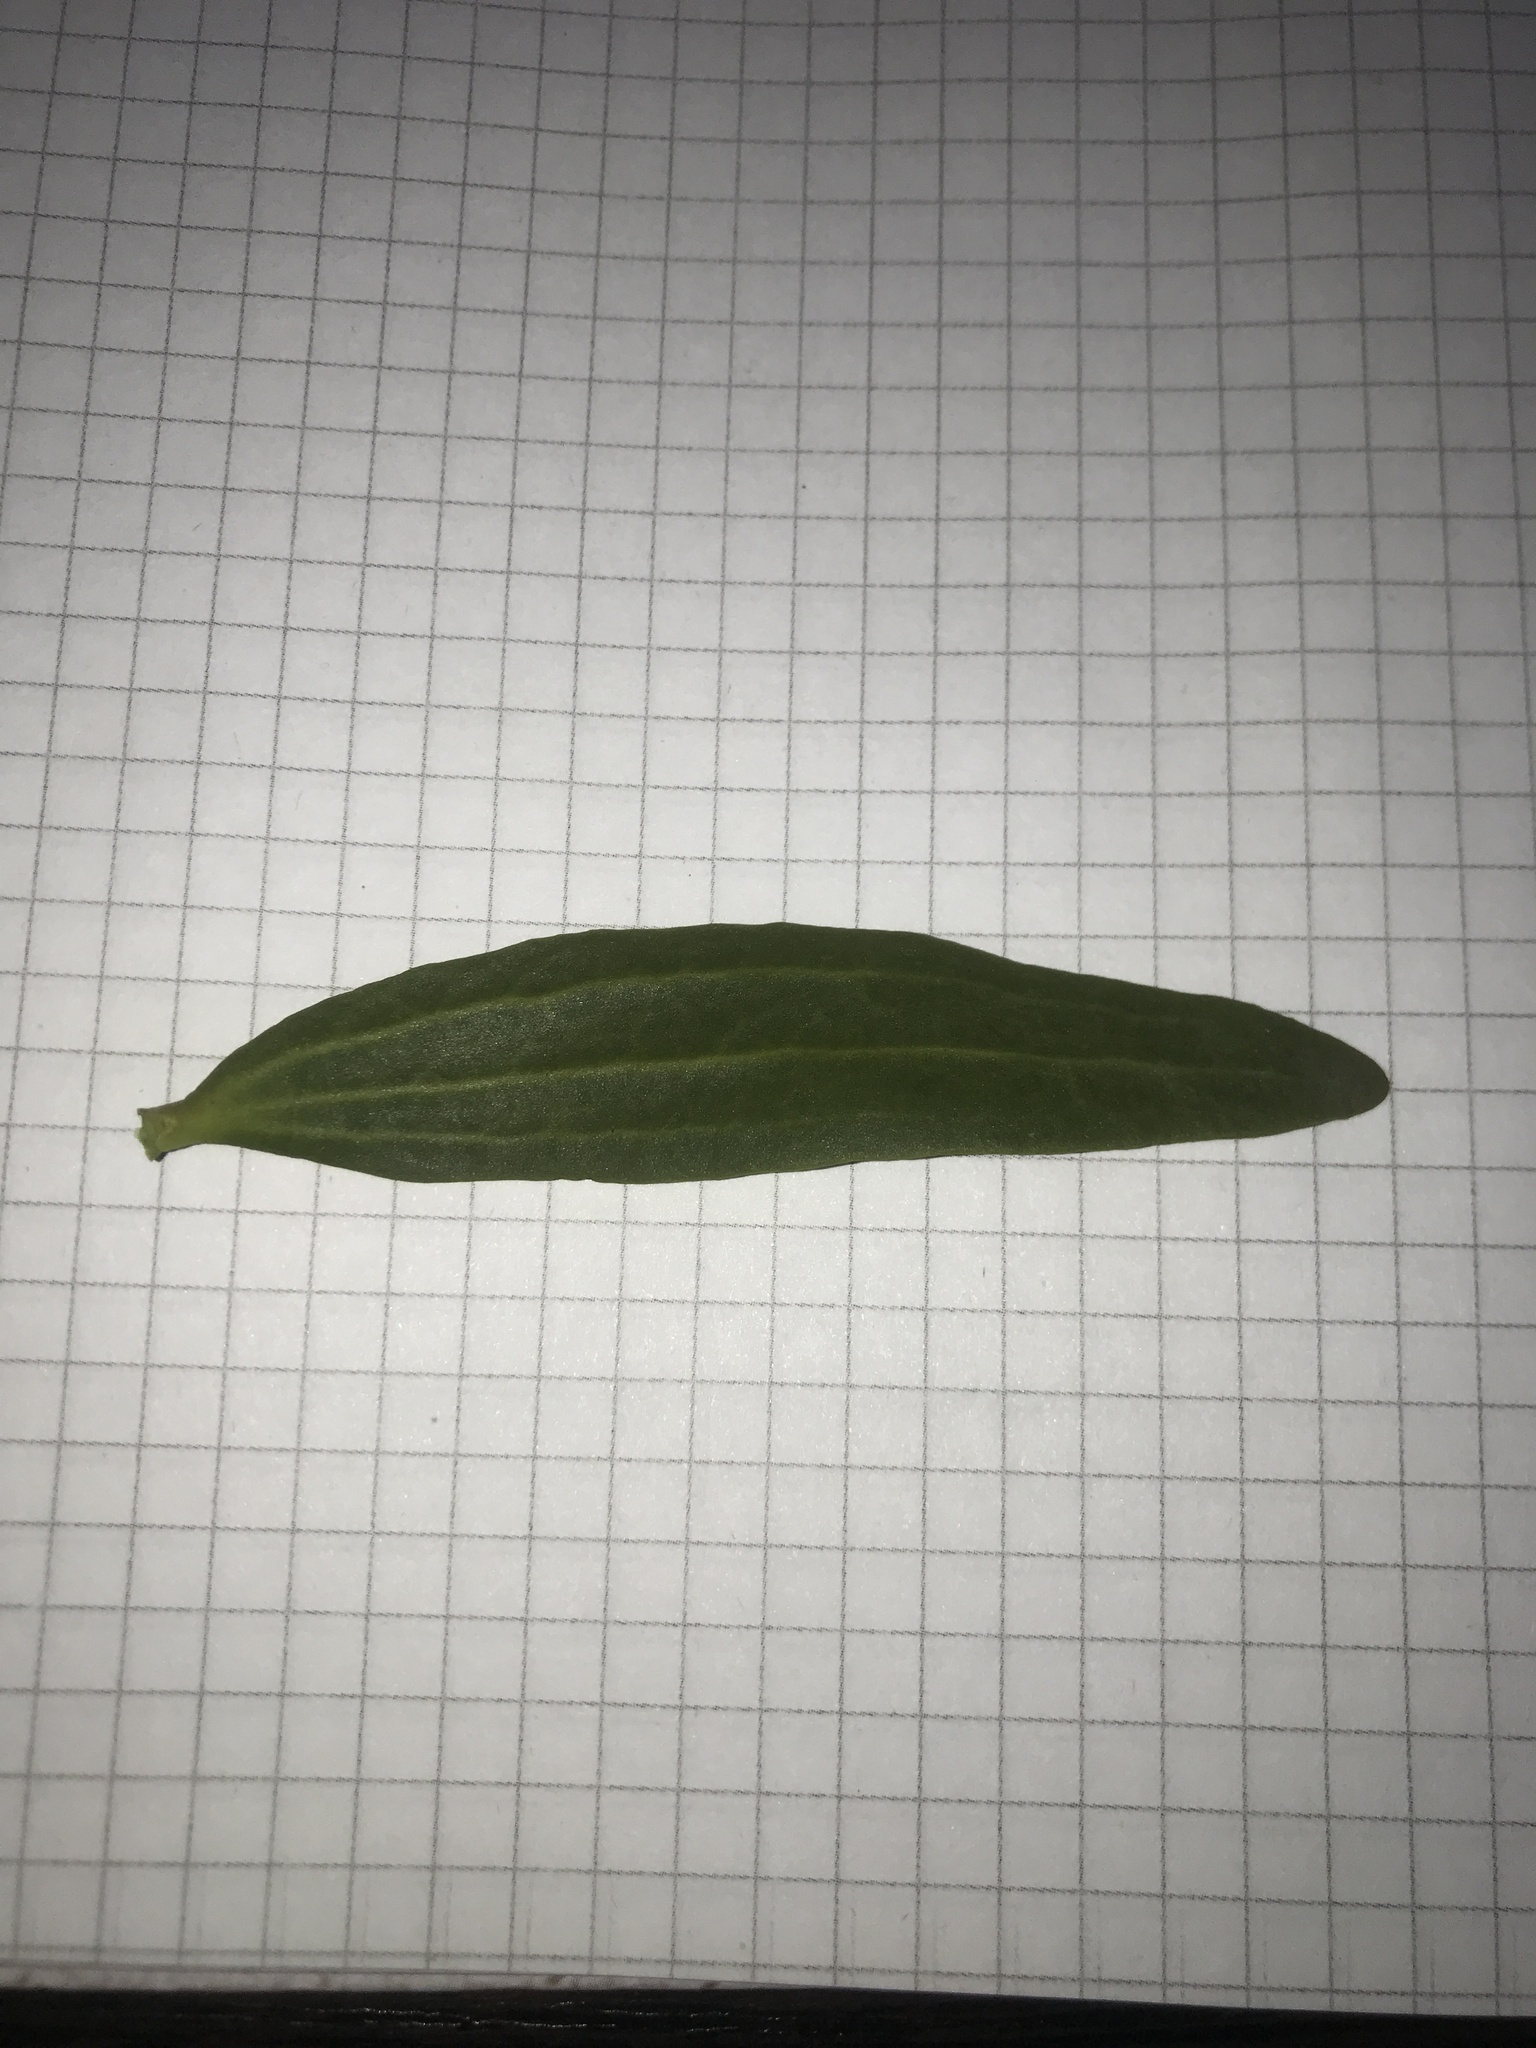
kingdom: Plantae
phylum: Tracheophyta
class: Magnoliopsida
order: Santalales
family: Viscaceae
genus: Viscum
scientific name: Viscum album
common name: Mistletoe
